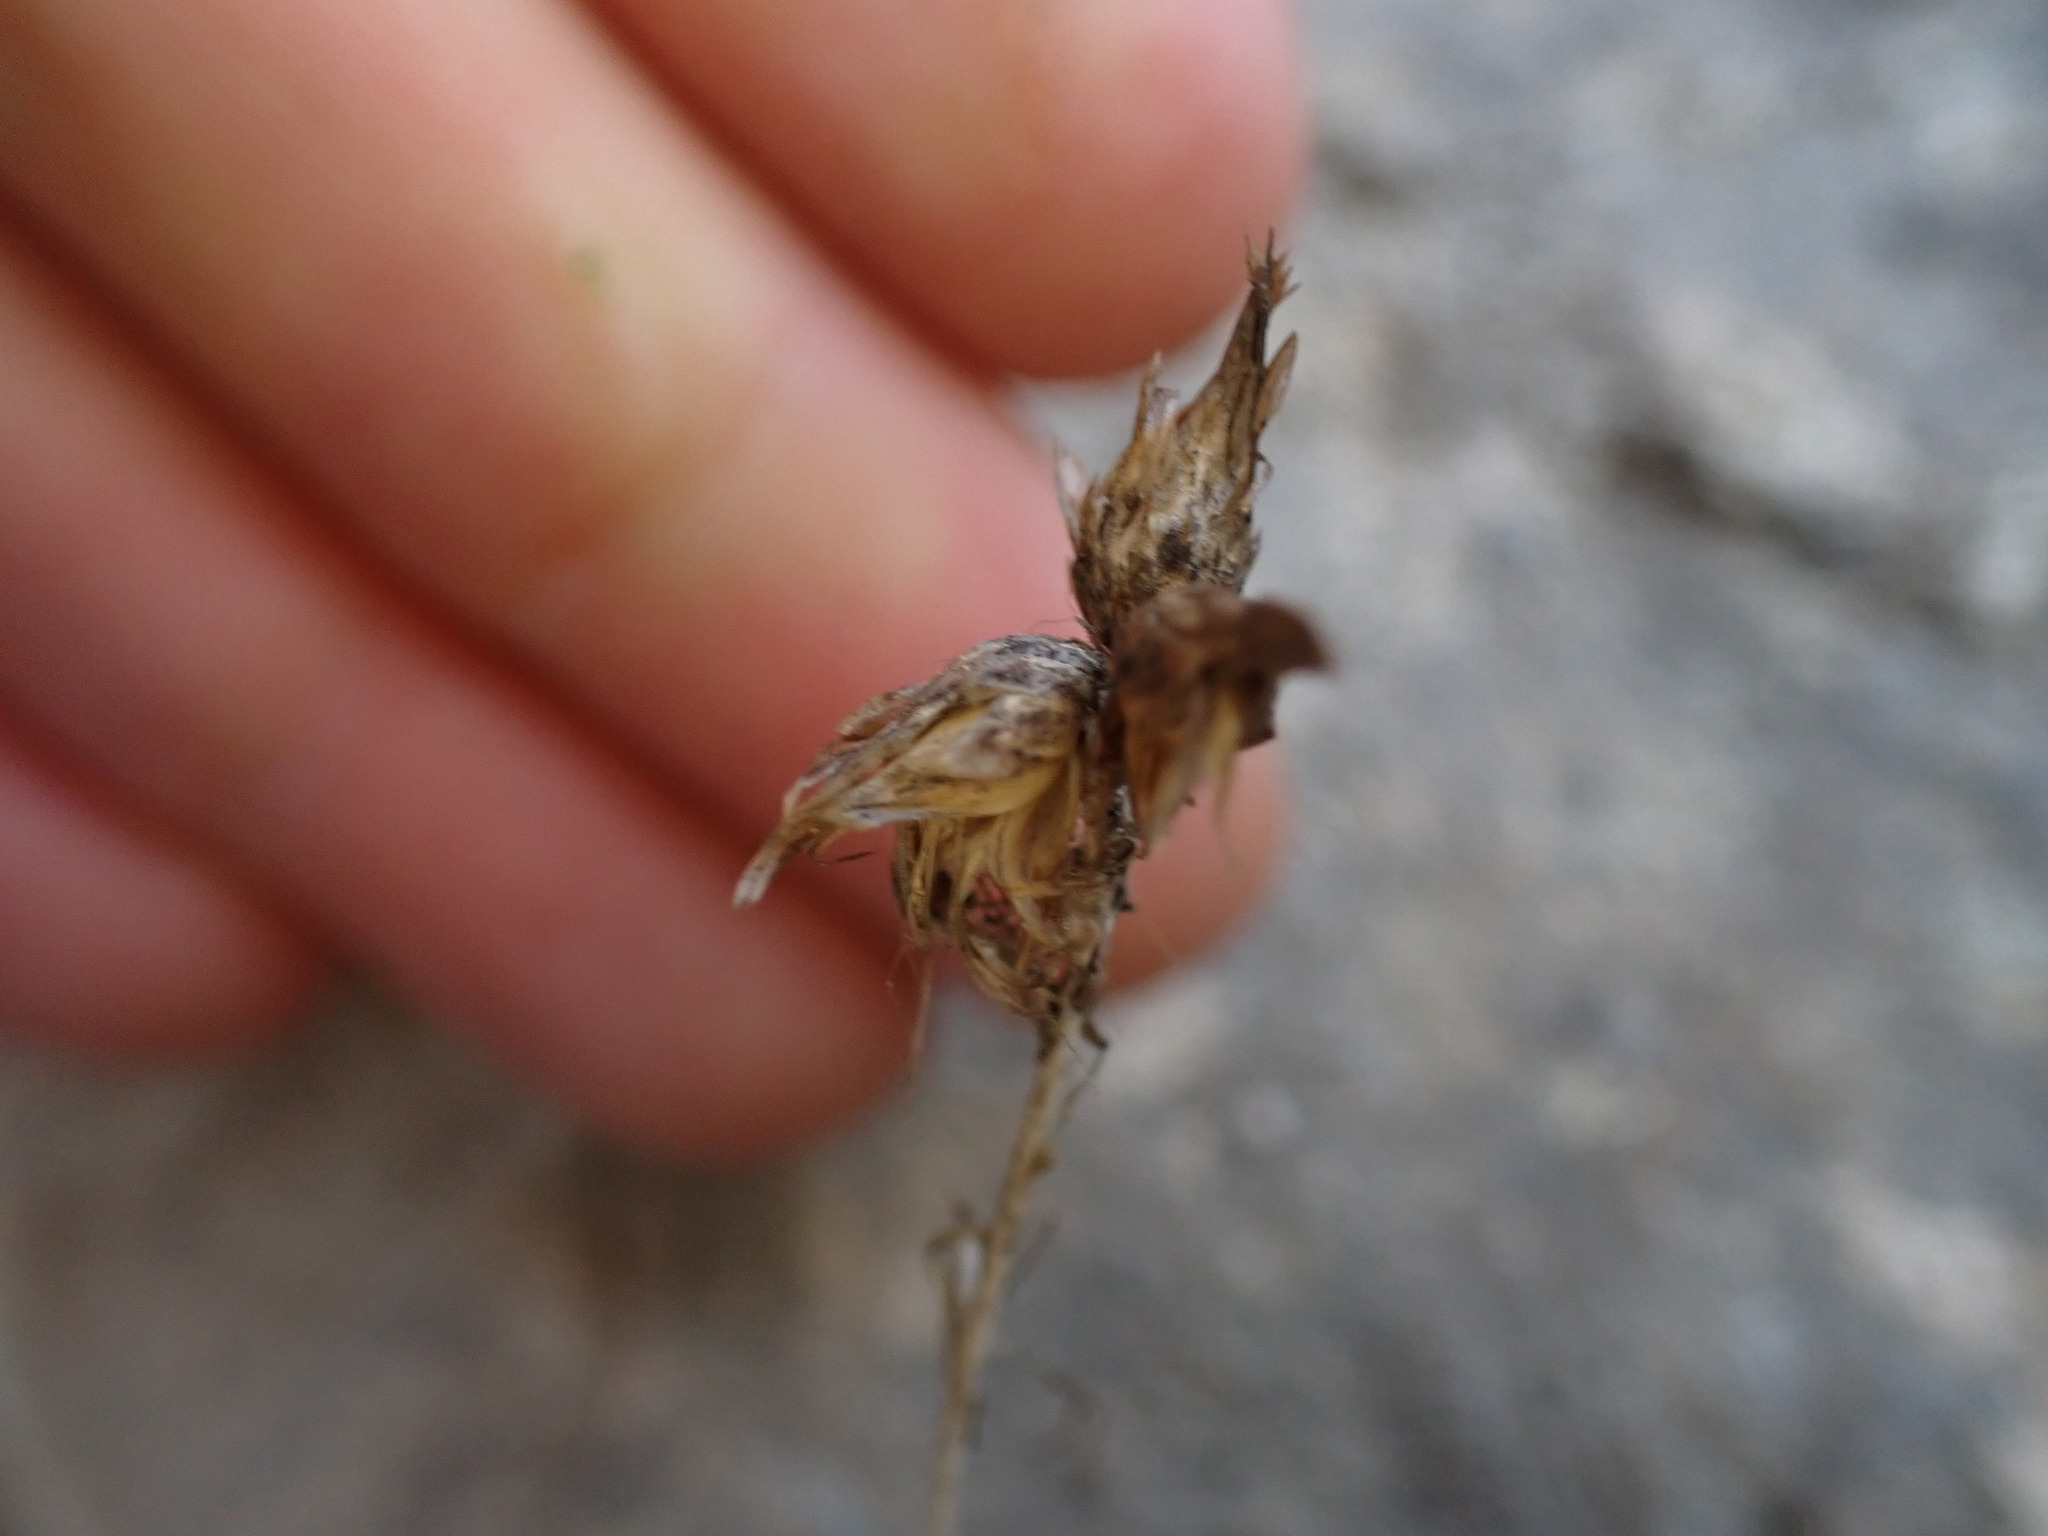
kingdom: Plantae
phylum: Tracheophyta
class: Magnoliopsida
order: Asterales
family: Asteraceae
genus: Phagnalon
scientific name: Phagnalon sordidum
